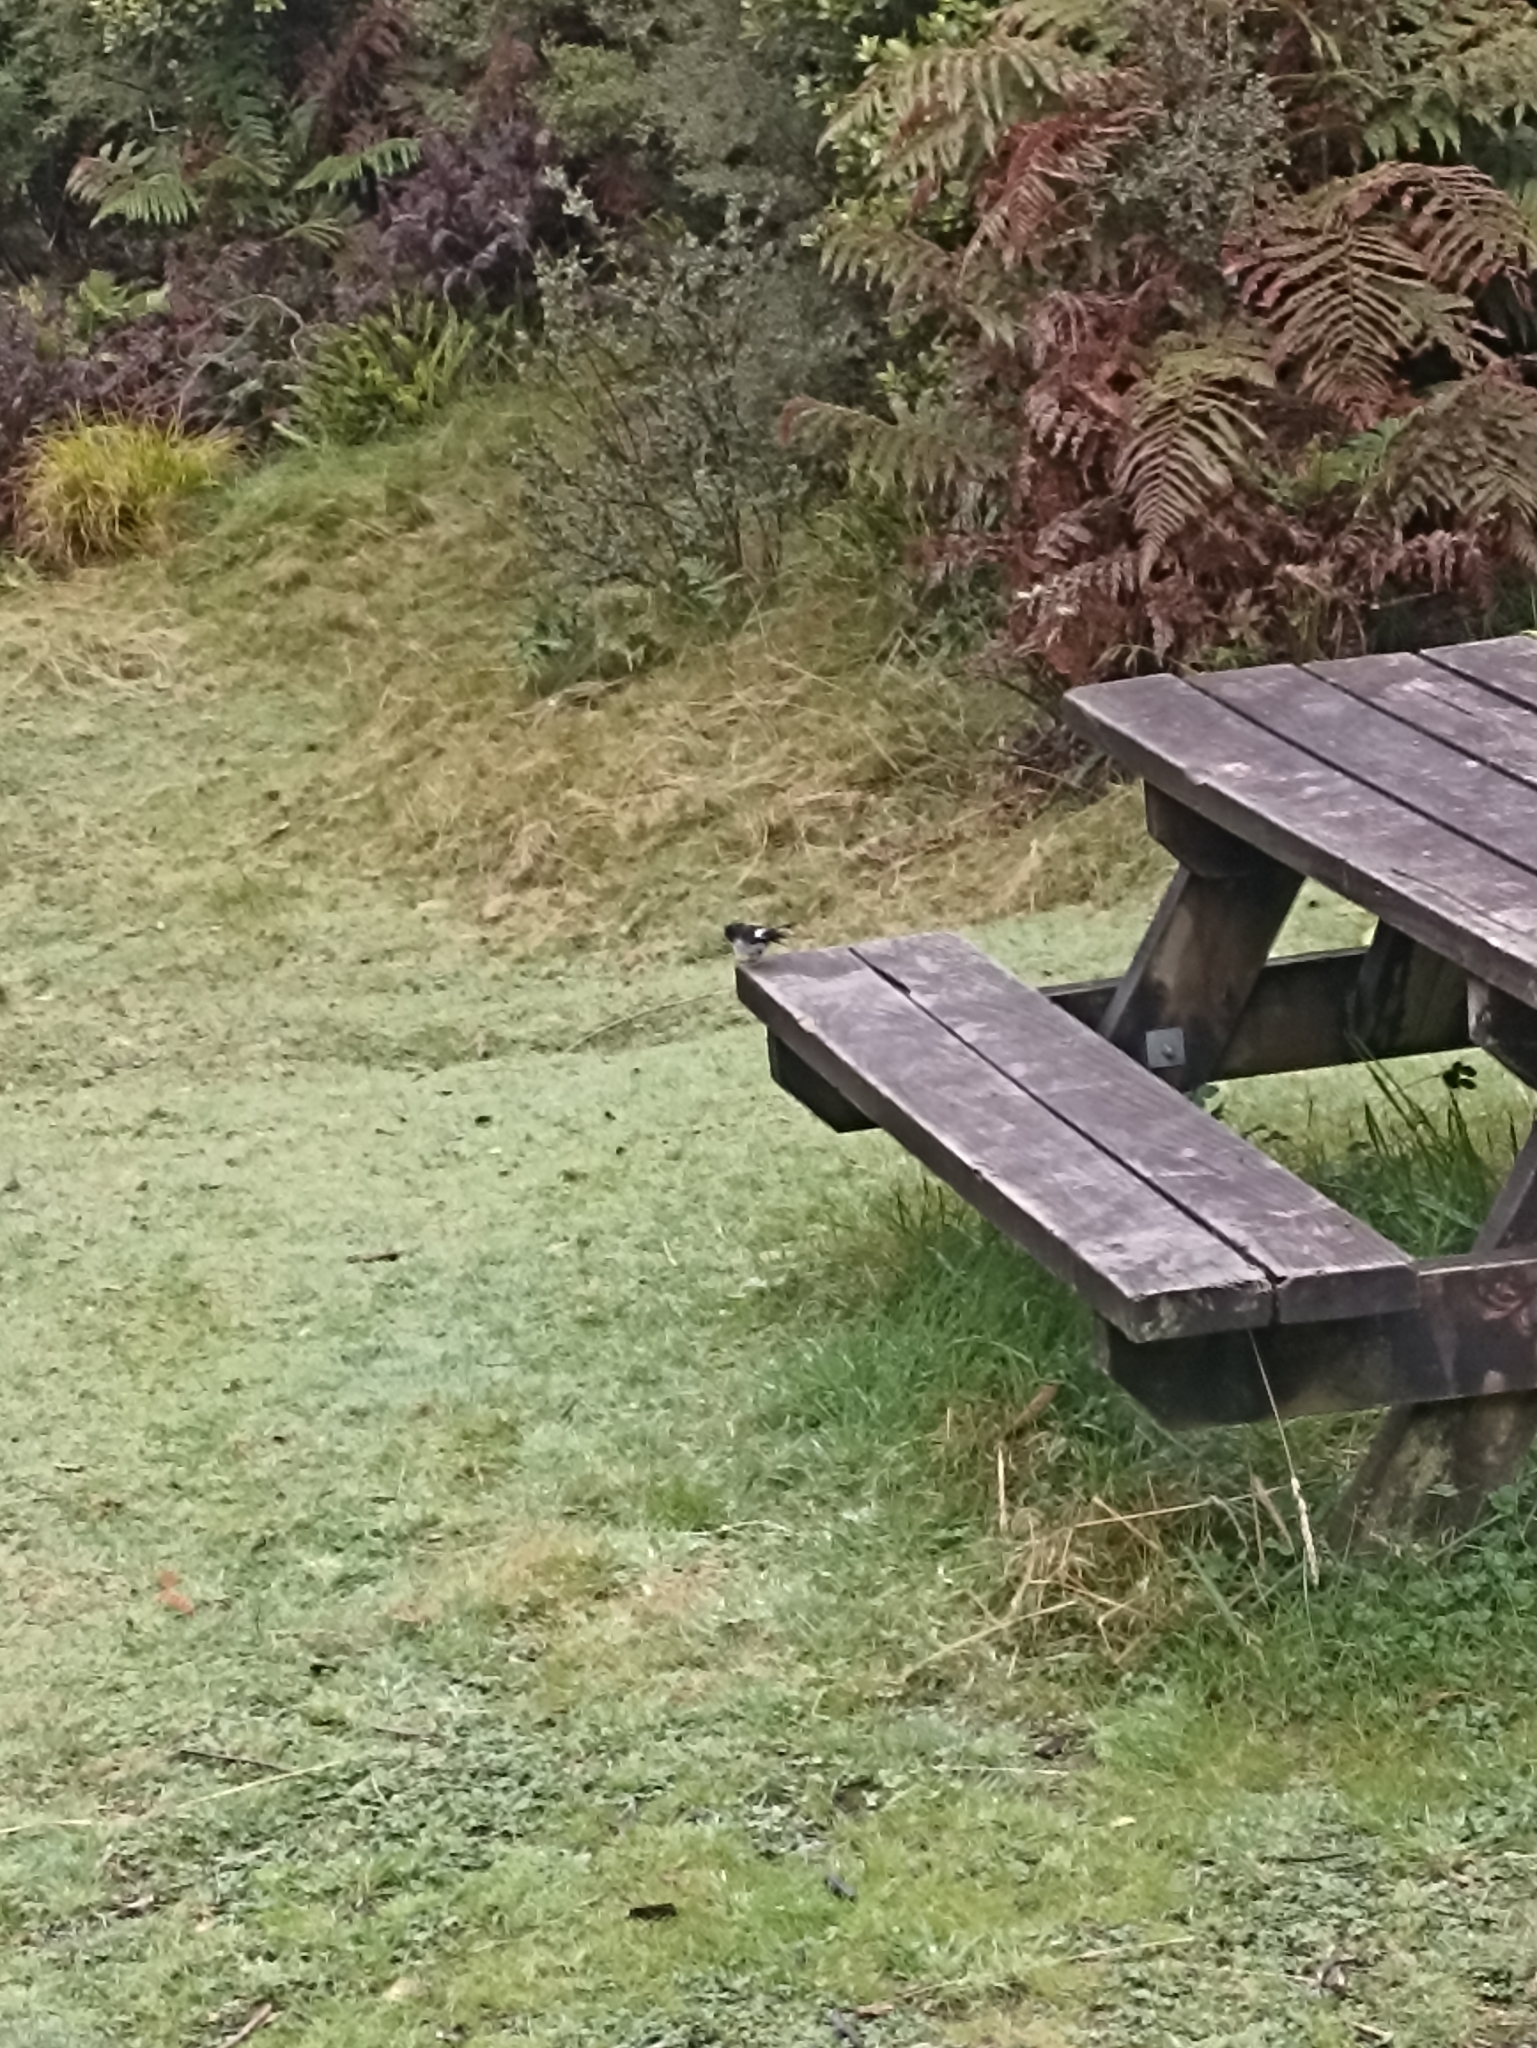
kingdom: Animalia
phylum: Chordata
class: Aves
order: Passeriformes
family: Petroicidae
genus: Petroica
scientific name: Petroica macrocephala
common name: Tomtit
